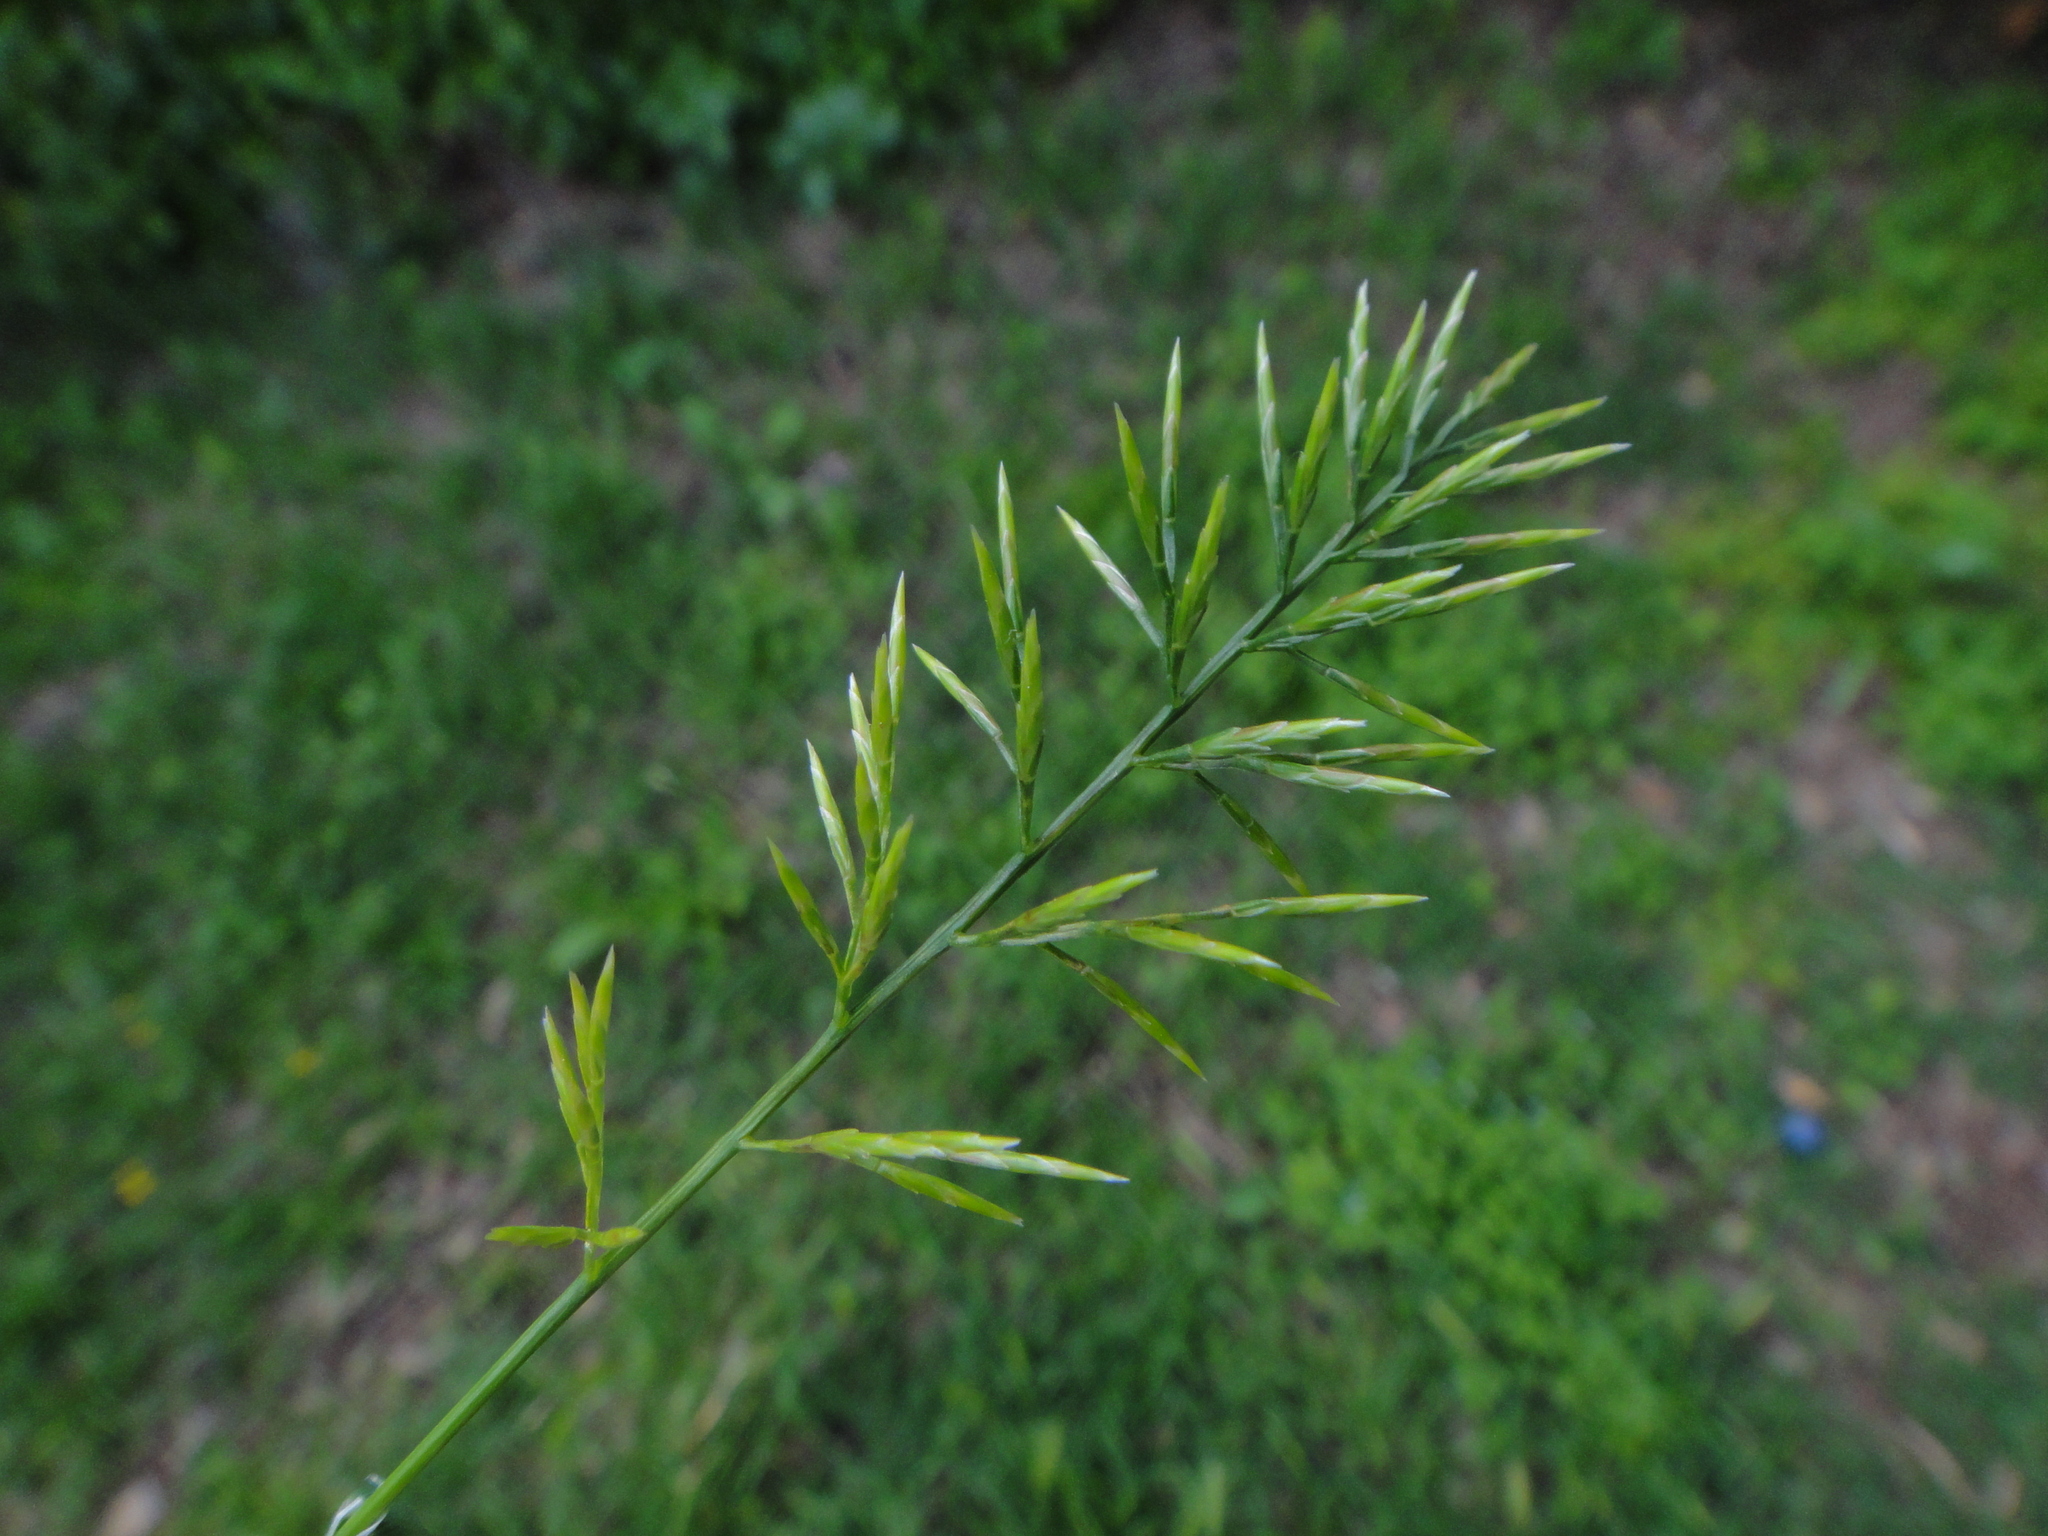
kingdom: Plantae
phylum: Tracheophyta
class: Liliopsida
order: Poales
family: Poaceae
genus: Catapodium
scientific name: Catapodium rigidum
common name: Fern-grass
